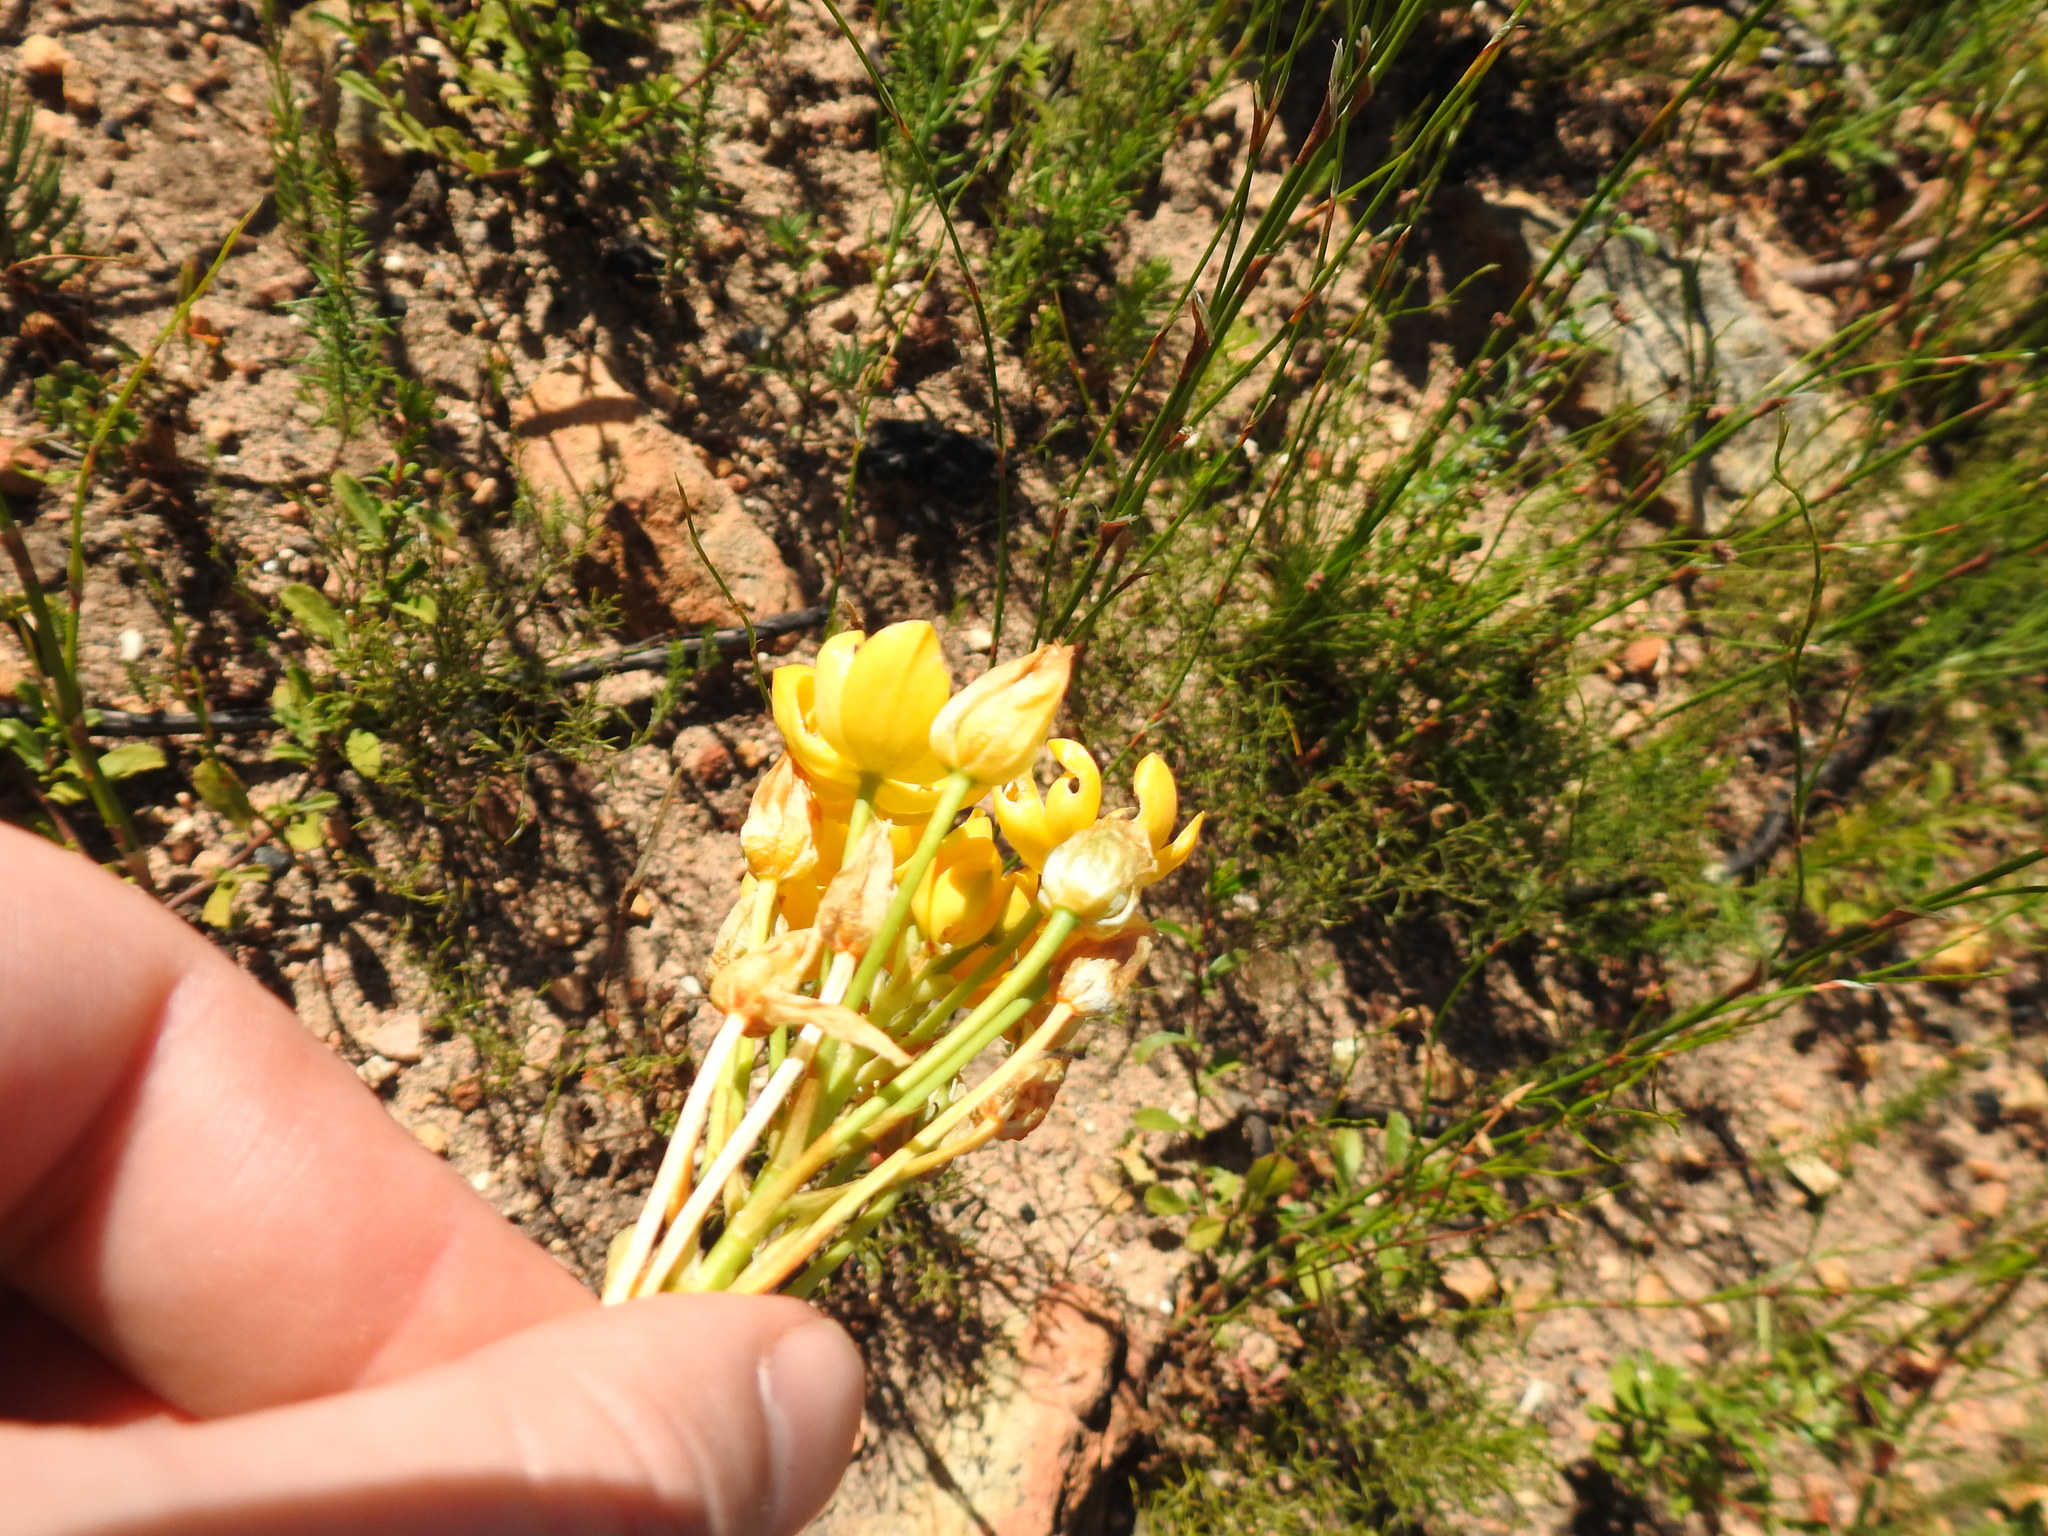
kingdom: Plantae
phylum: Tracheophyta
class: Liliopsida
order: Asparagales
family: Asparagaceae
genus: Ornithogalum
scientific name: Ornithogalum dubium
